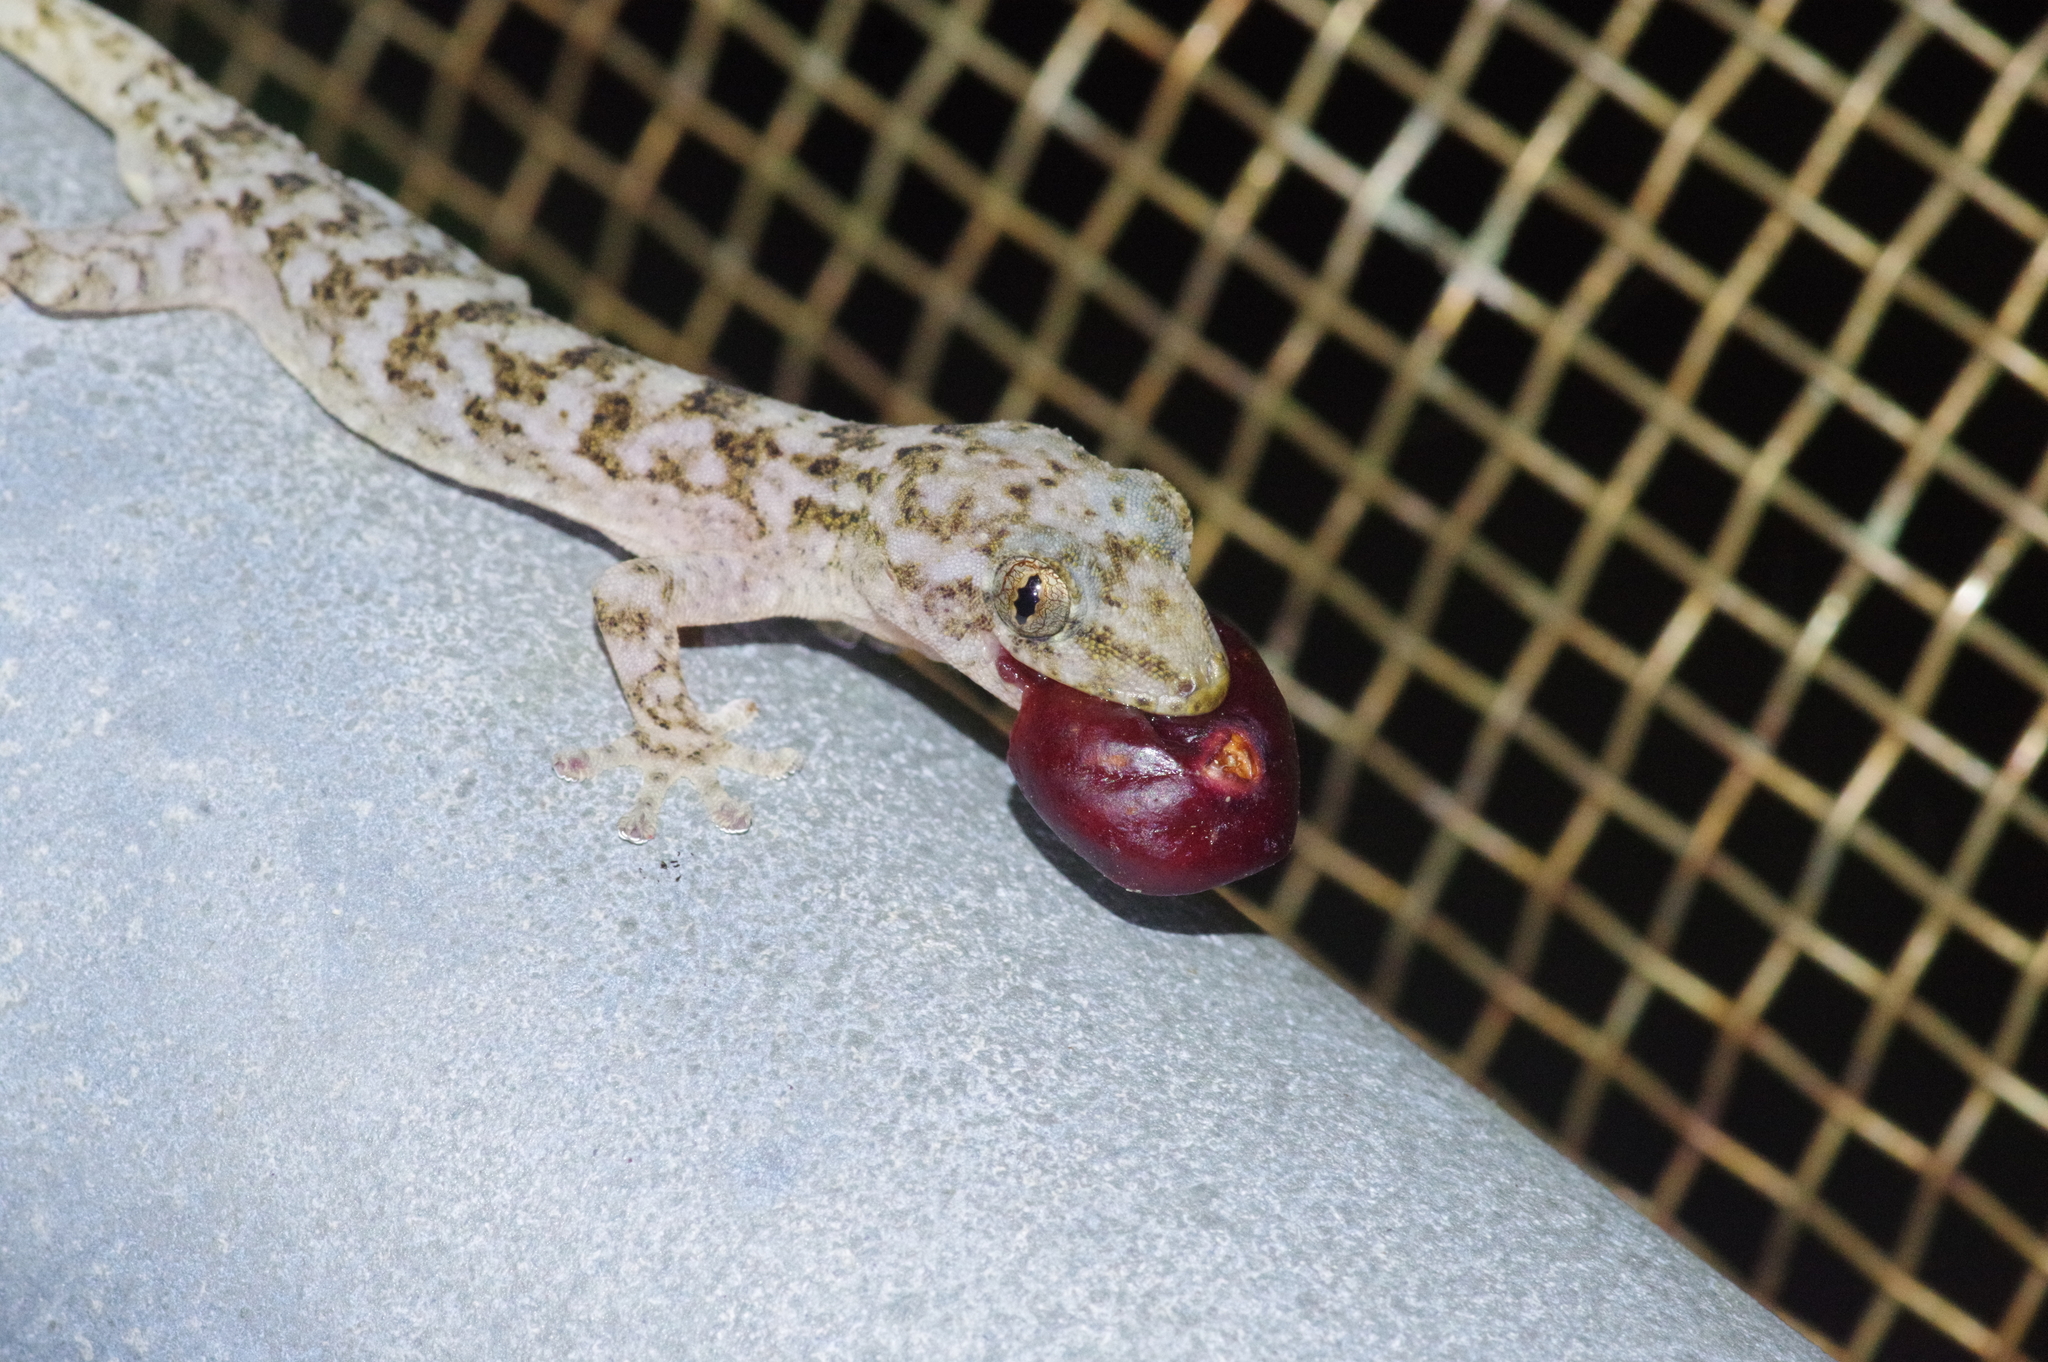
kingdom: Animalia
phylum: Chordata
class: Squamata
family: Gekkonidae
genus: Gekko
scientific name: Gekko hokouensis
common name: Kwangsi gecko
